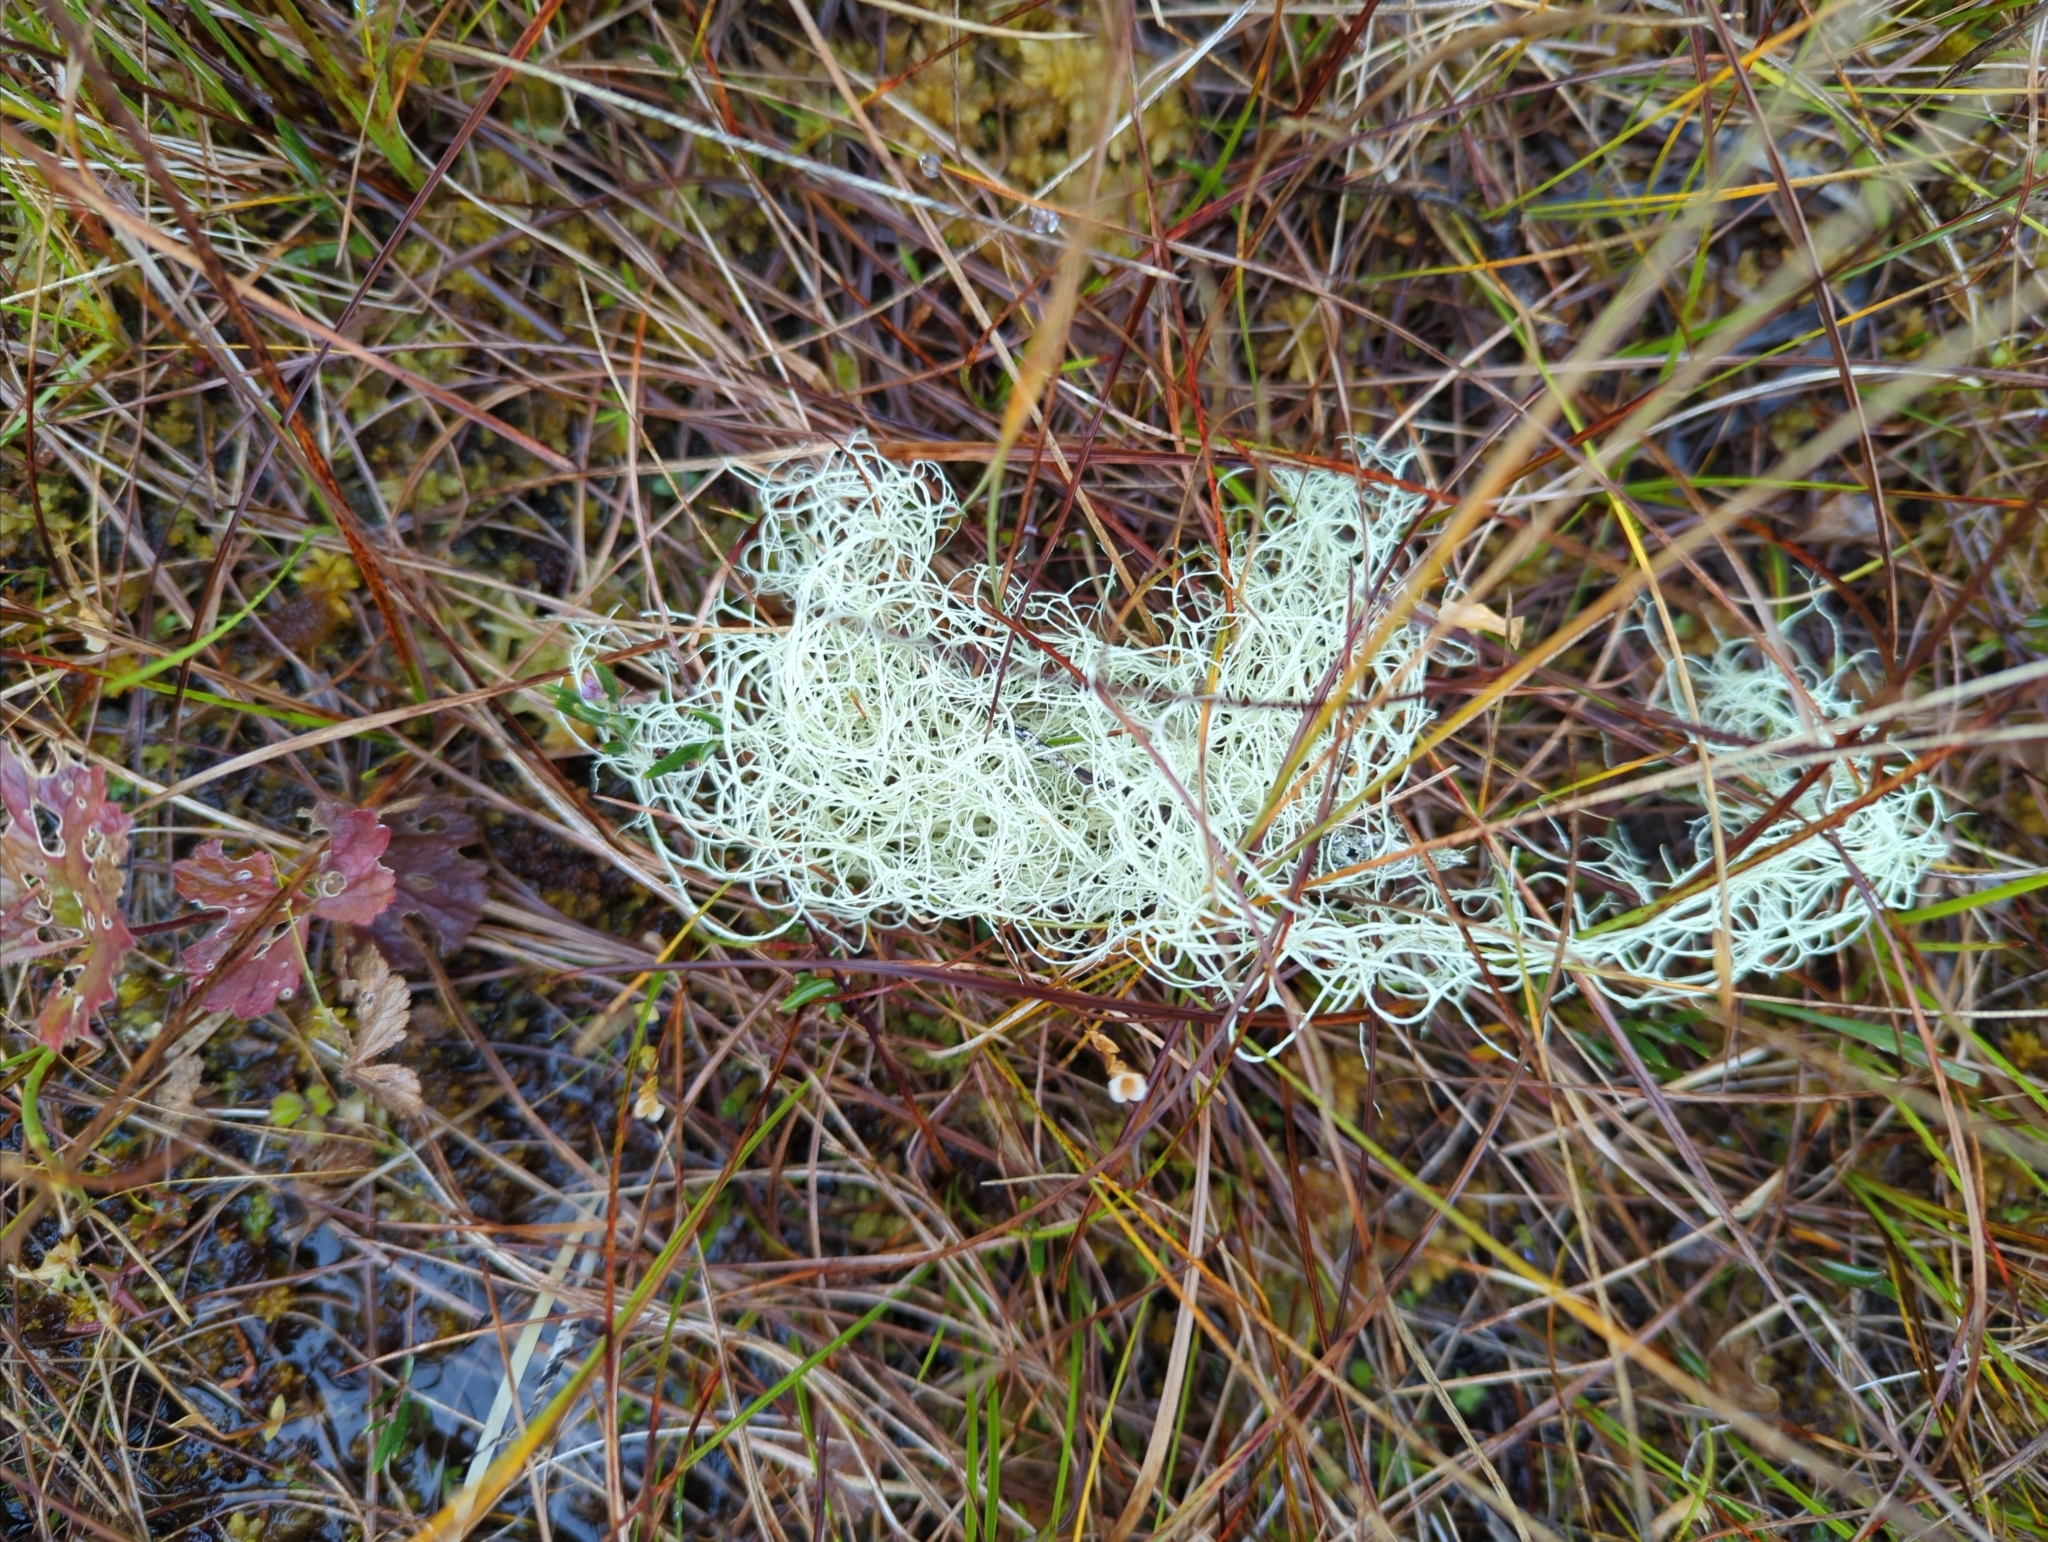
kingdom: Fungi
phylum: Ascomycota
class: Lecanoromycetes
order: Lecanorales
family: Parmeliaceae
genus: Alectoria
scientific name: Alectoria sarmentosa
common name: Witch's hair
